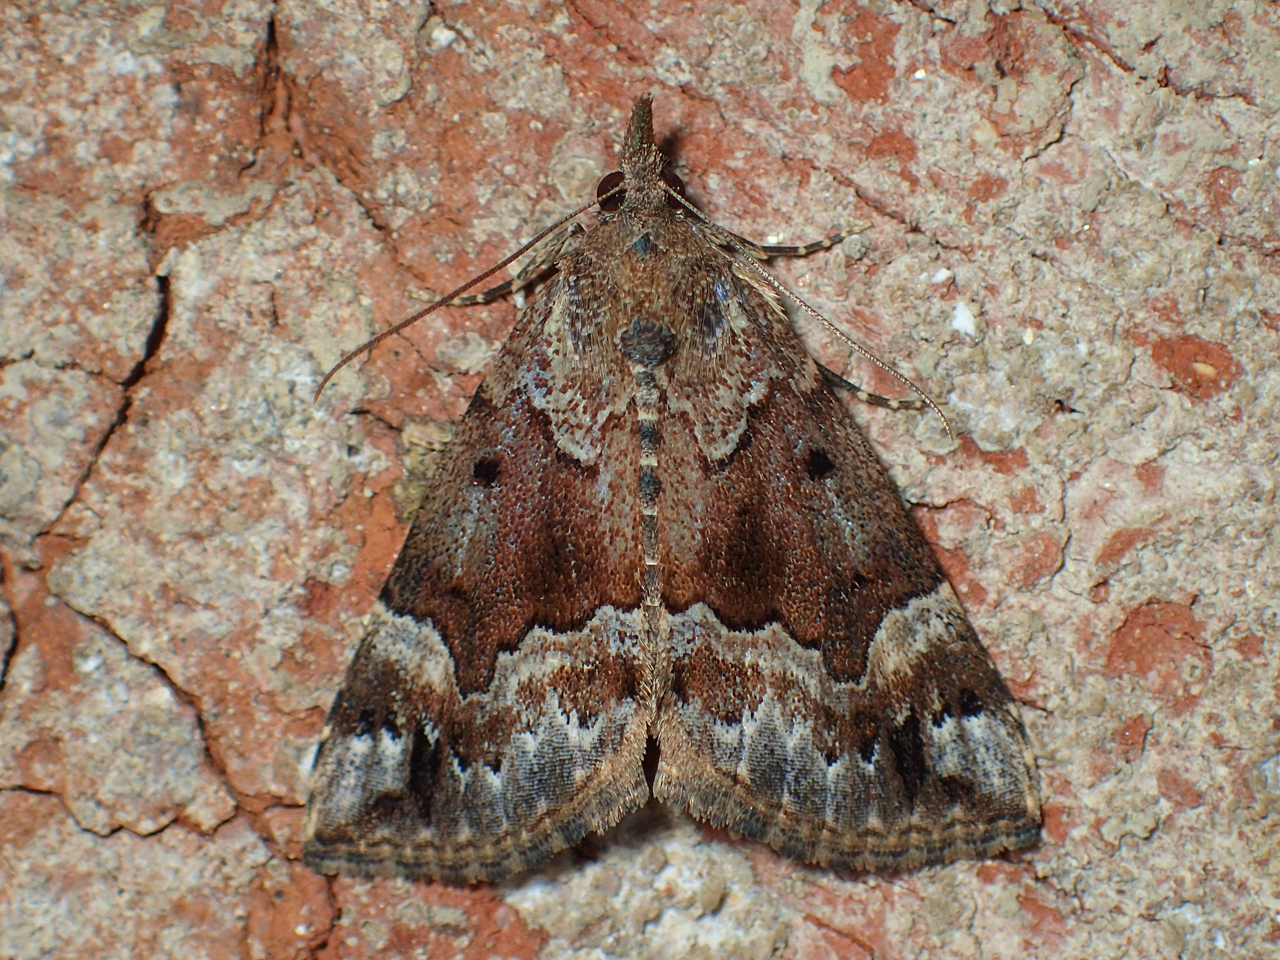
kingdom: Animalia
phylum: Arthropoda
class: Insecta
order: Lepidoptera
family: Erebidae
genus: Hypena
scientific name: Hypena palparia
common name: Mottled bomolocha moth
